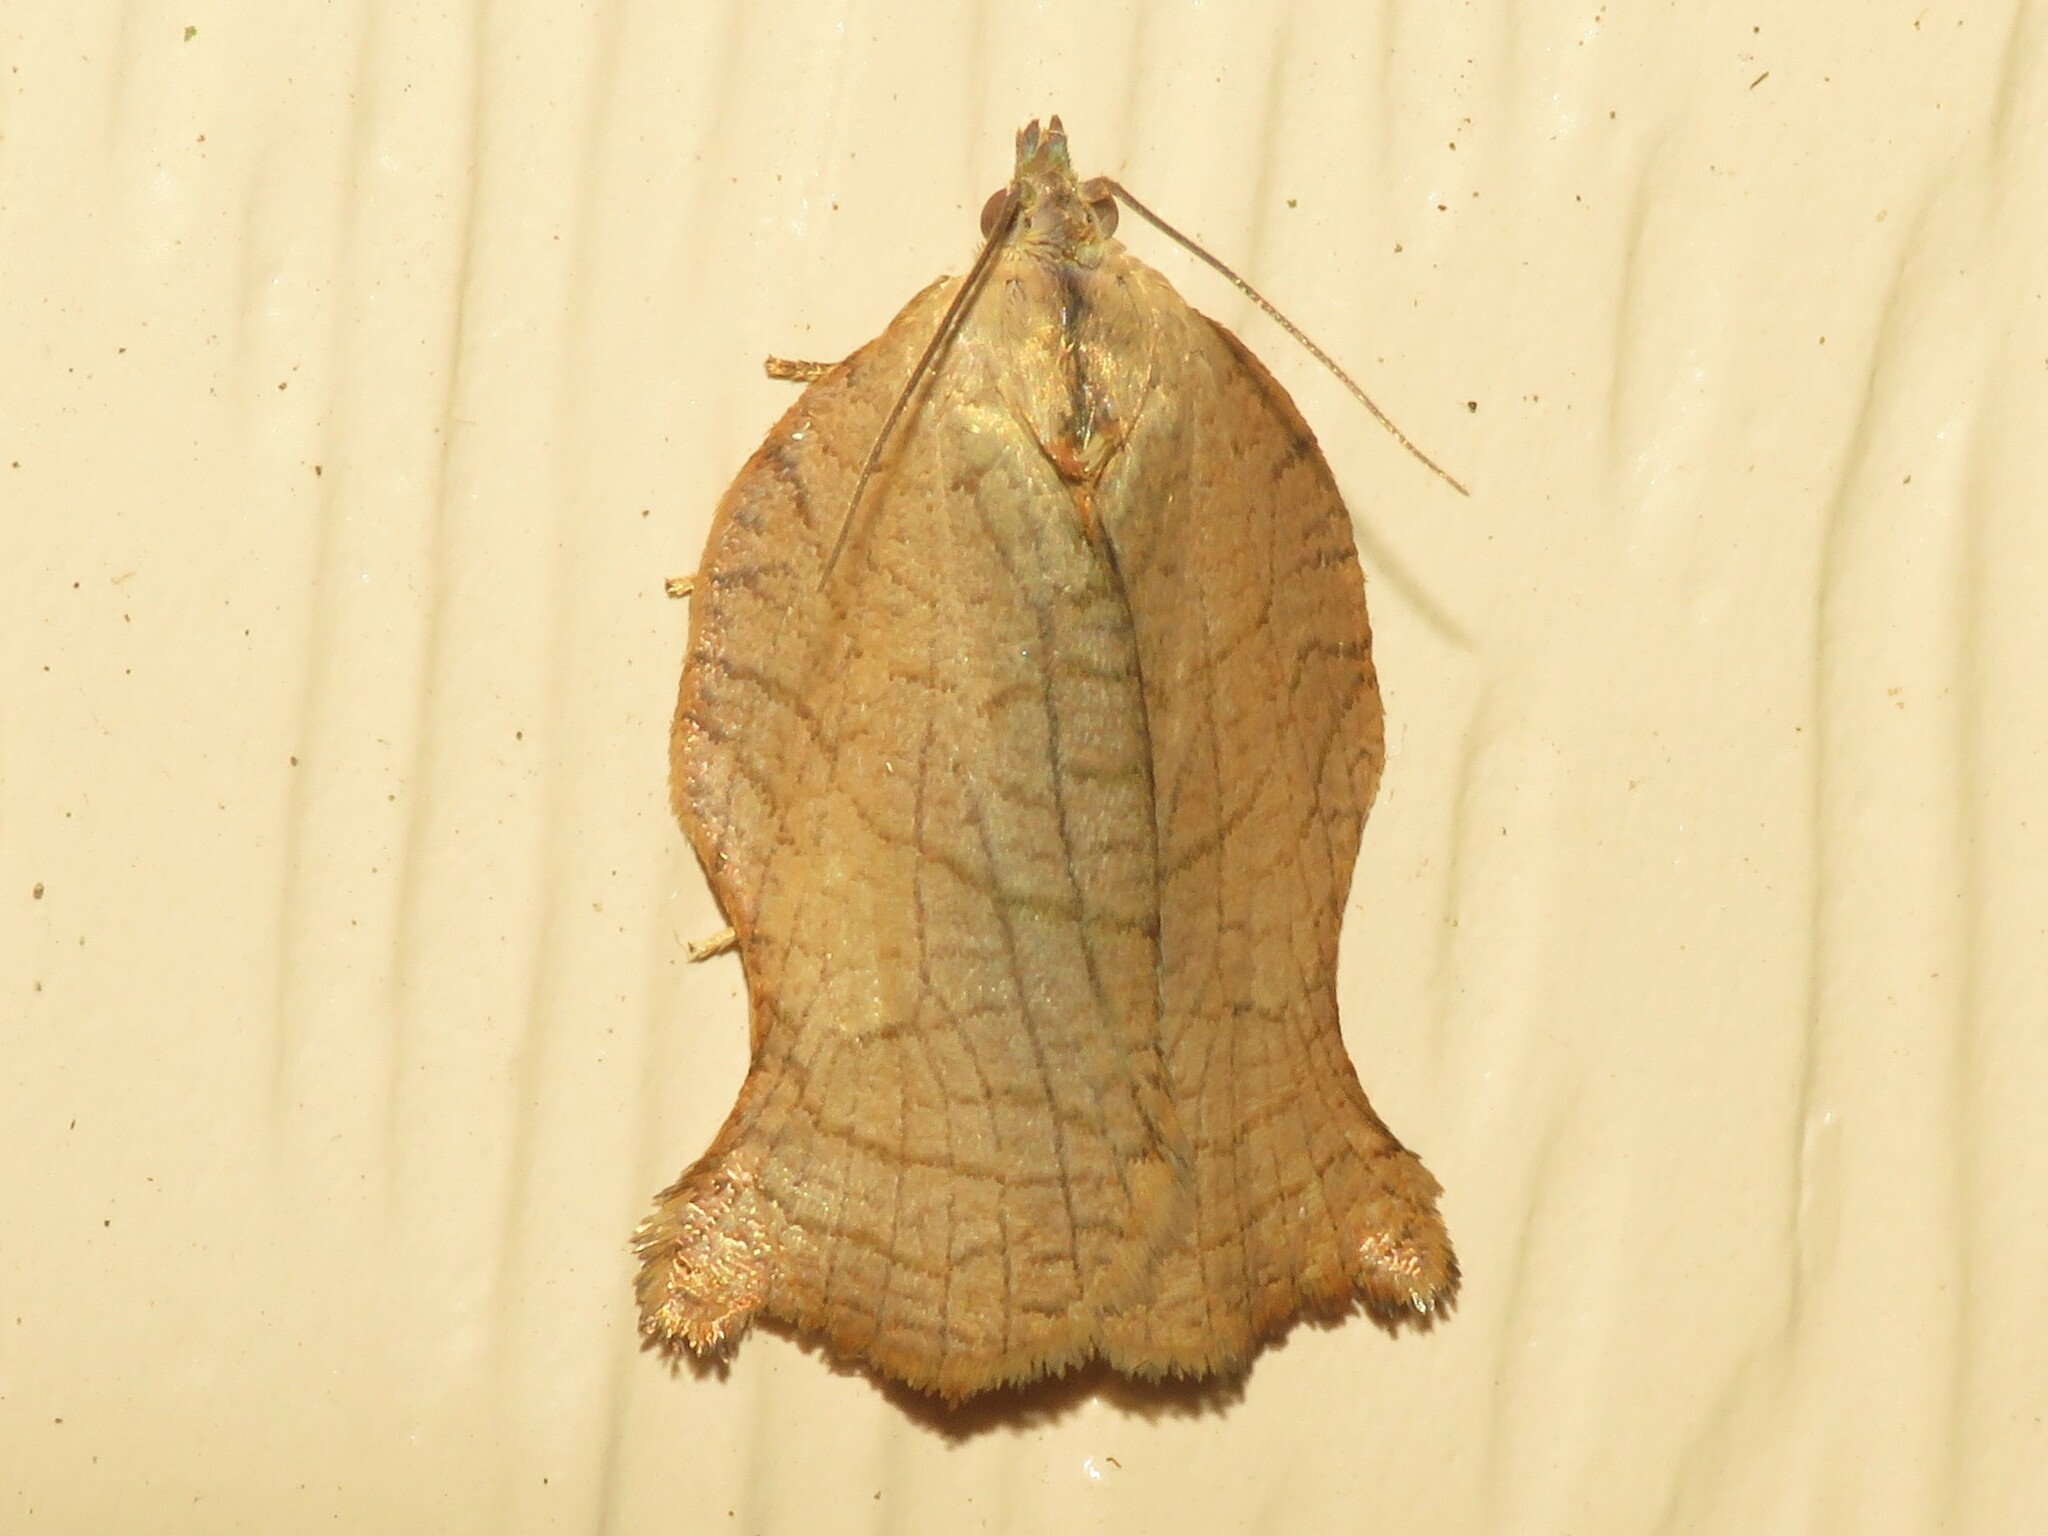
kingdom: Animalia
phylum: Arthropoda
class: Insecta
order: Lepidoptera
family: Tortricidae
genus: Archips
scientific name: Archips purpurana
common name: Omnivorous leafroller
